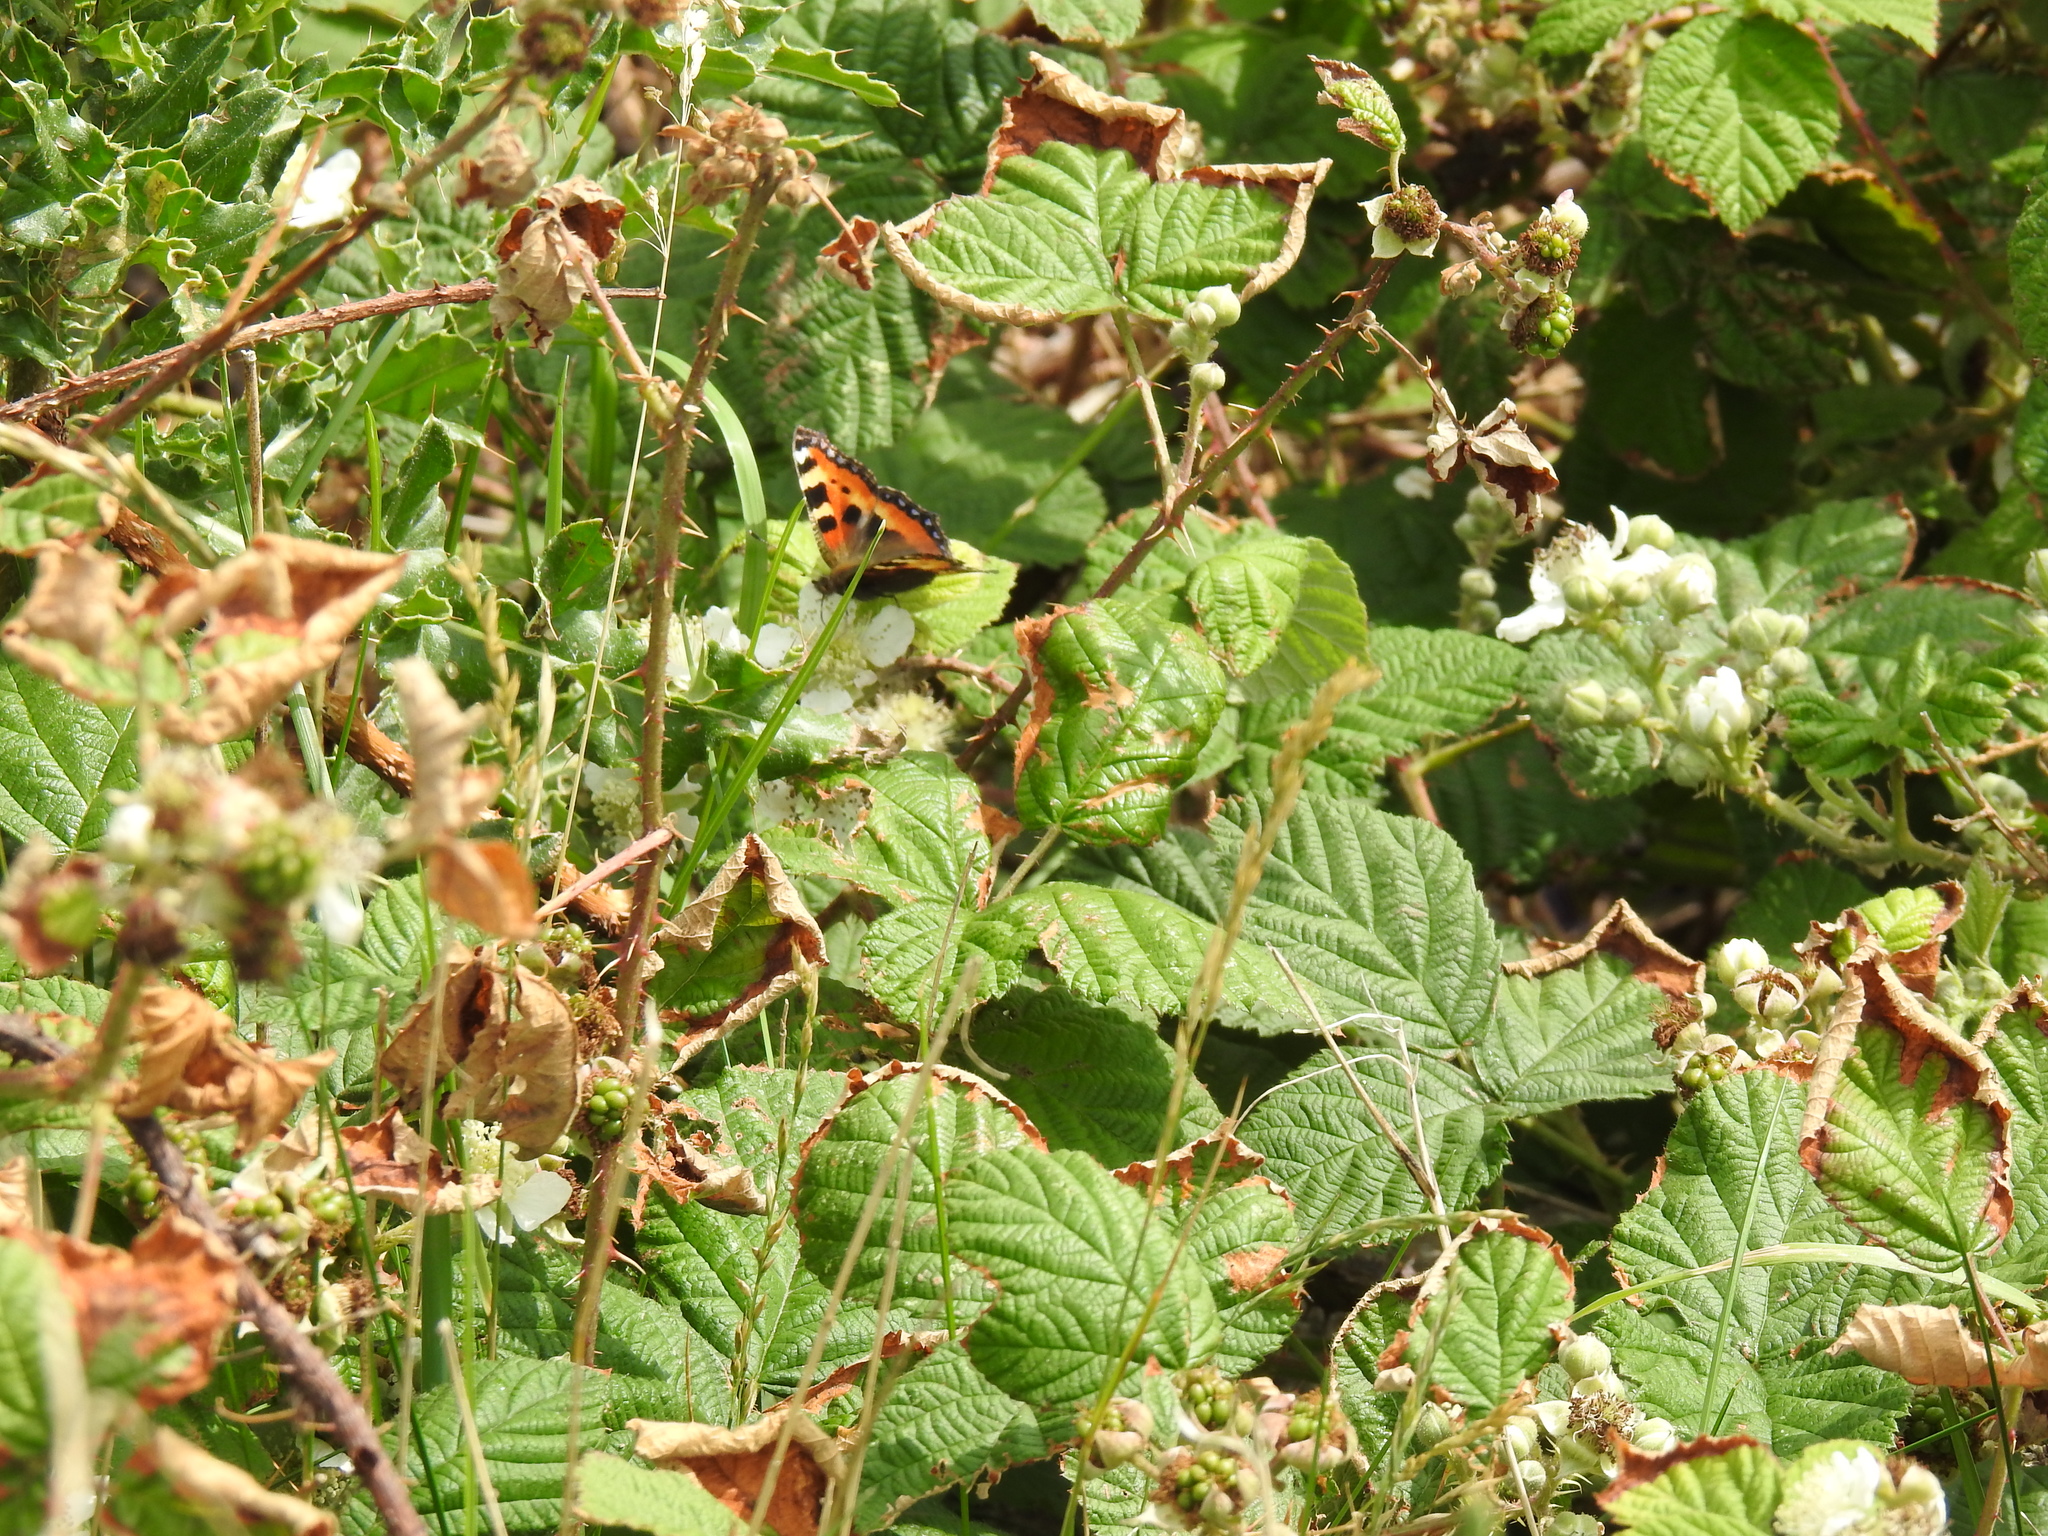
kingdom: Animalia
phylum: Arthropoda
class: Insecta
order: Lepidoptera
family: Nymphalidae
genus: Aglais
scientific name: Aglais urticae
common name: Small tortoiseshell
